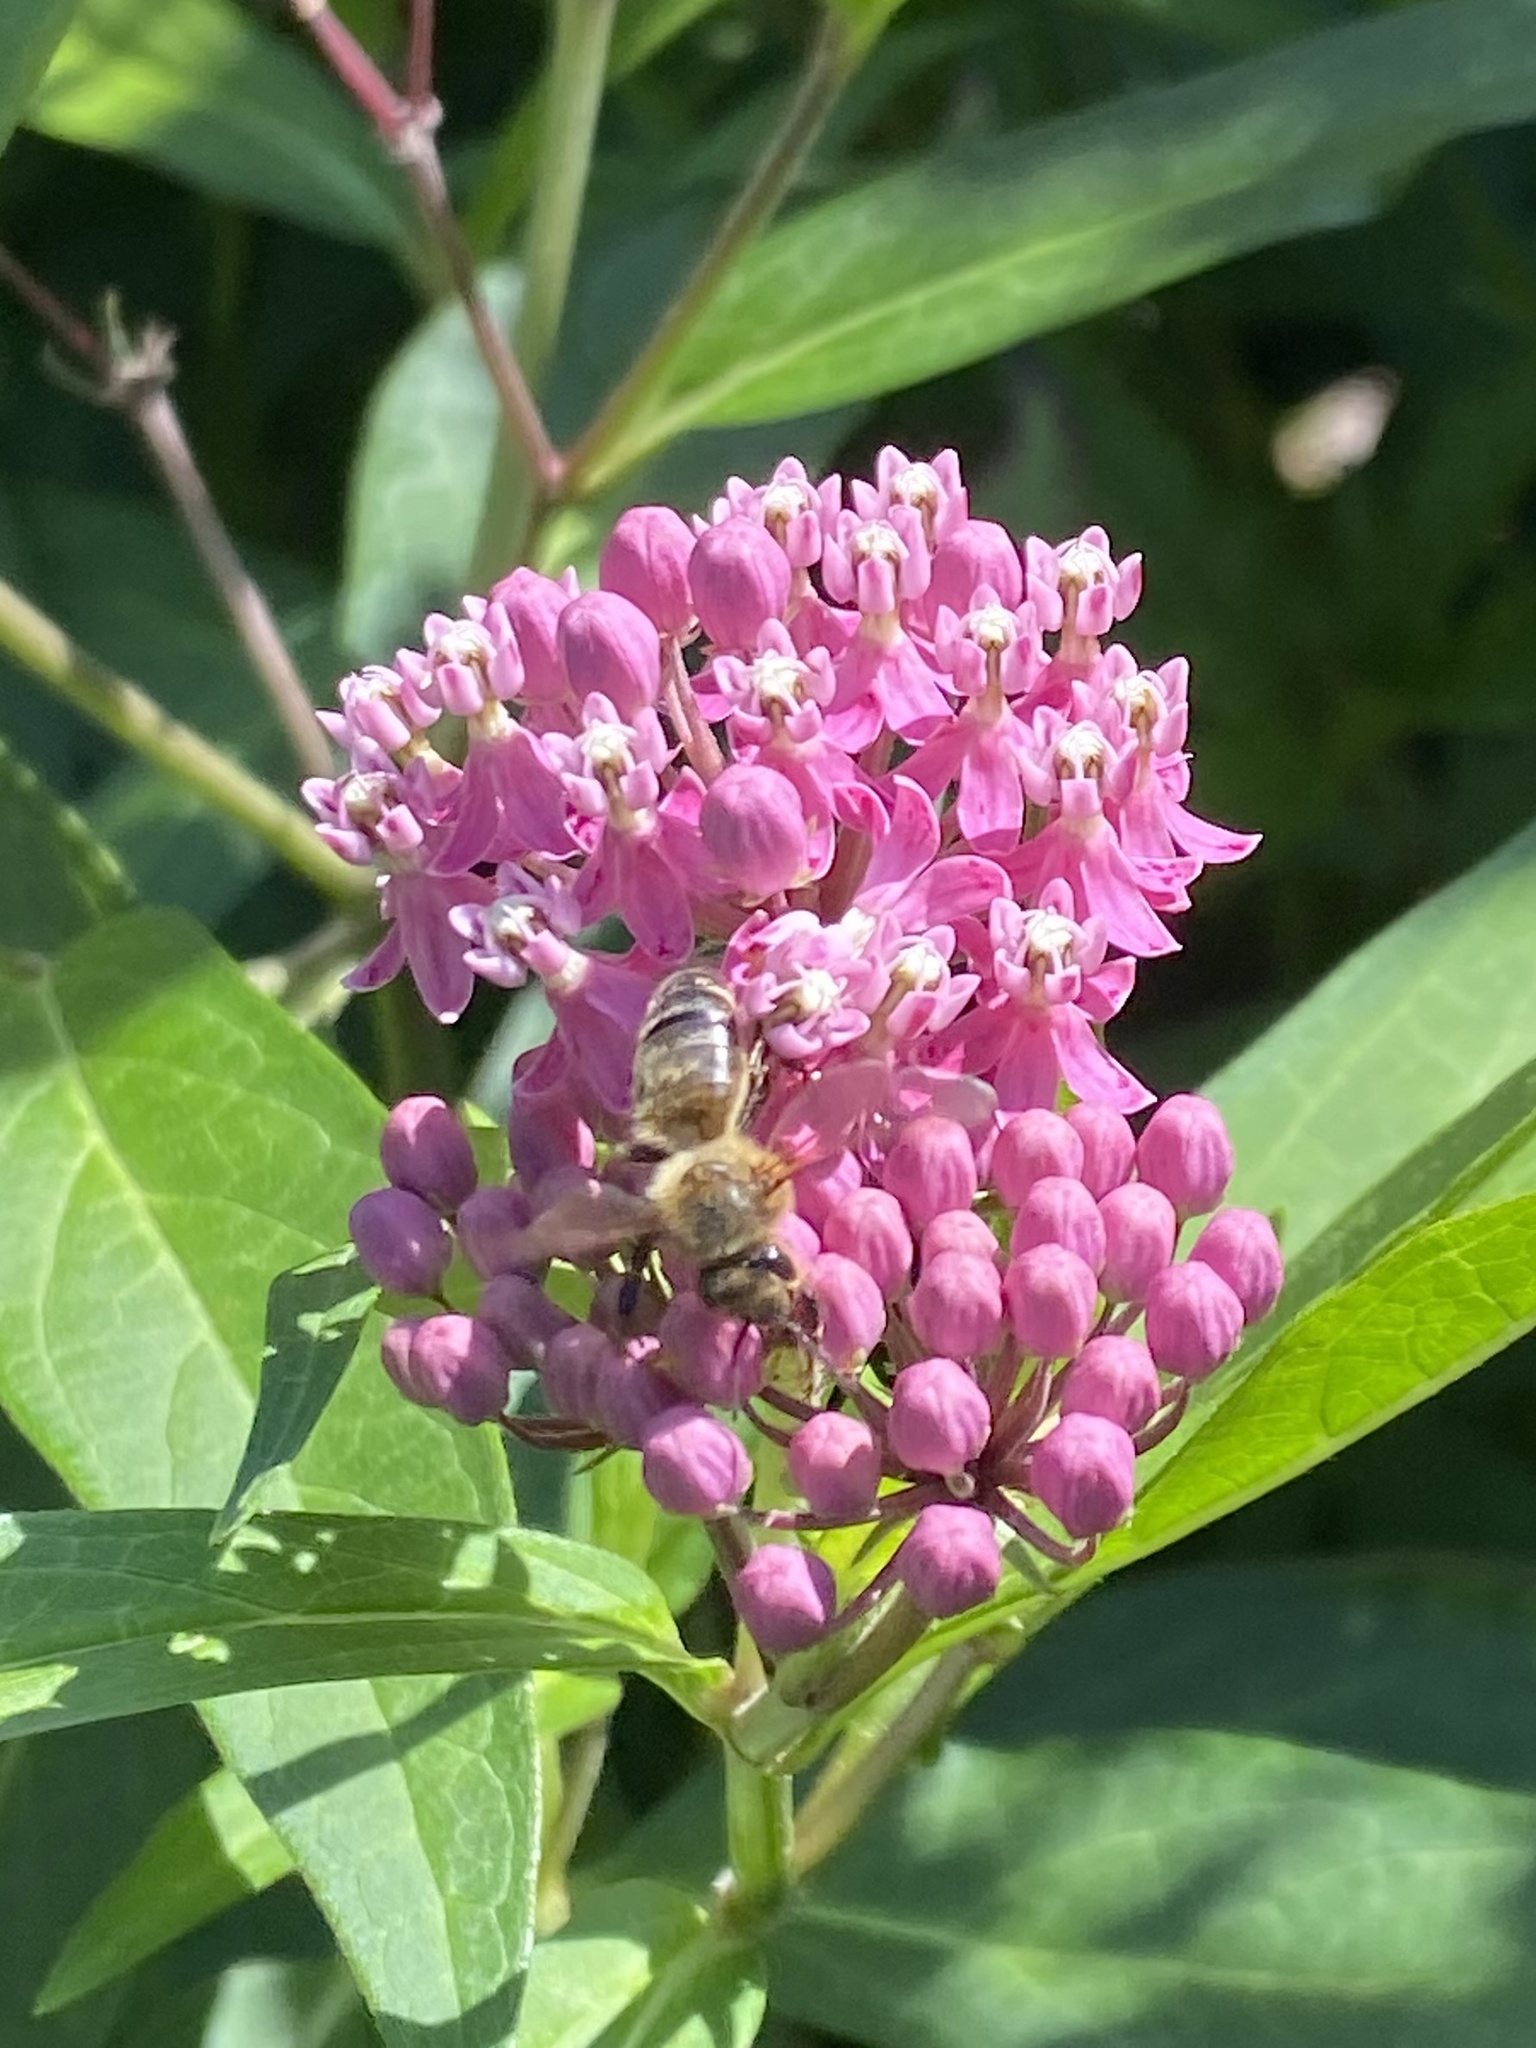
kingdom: Animalia
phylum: Arthropoda
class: Insecta
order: Hymenoptera
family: Apidae
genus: Apis
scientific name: Apis mellifera
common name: Honey bee
